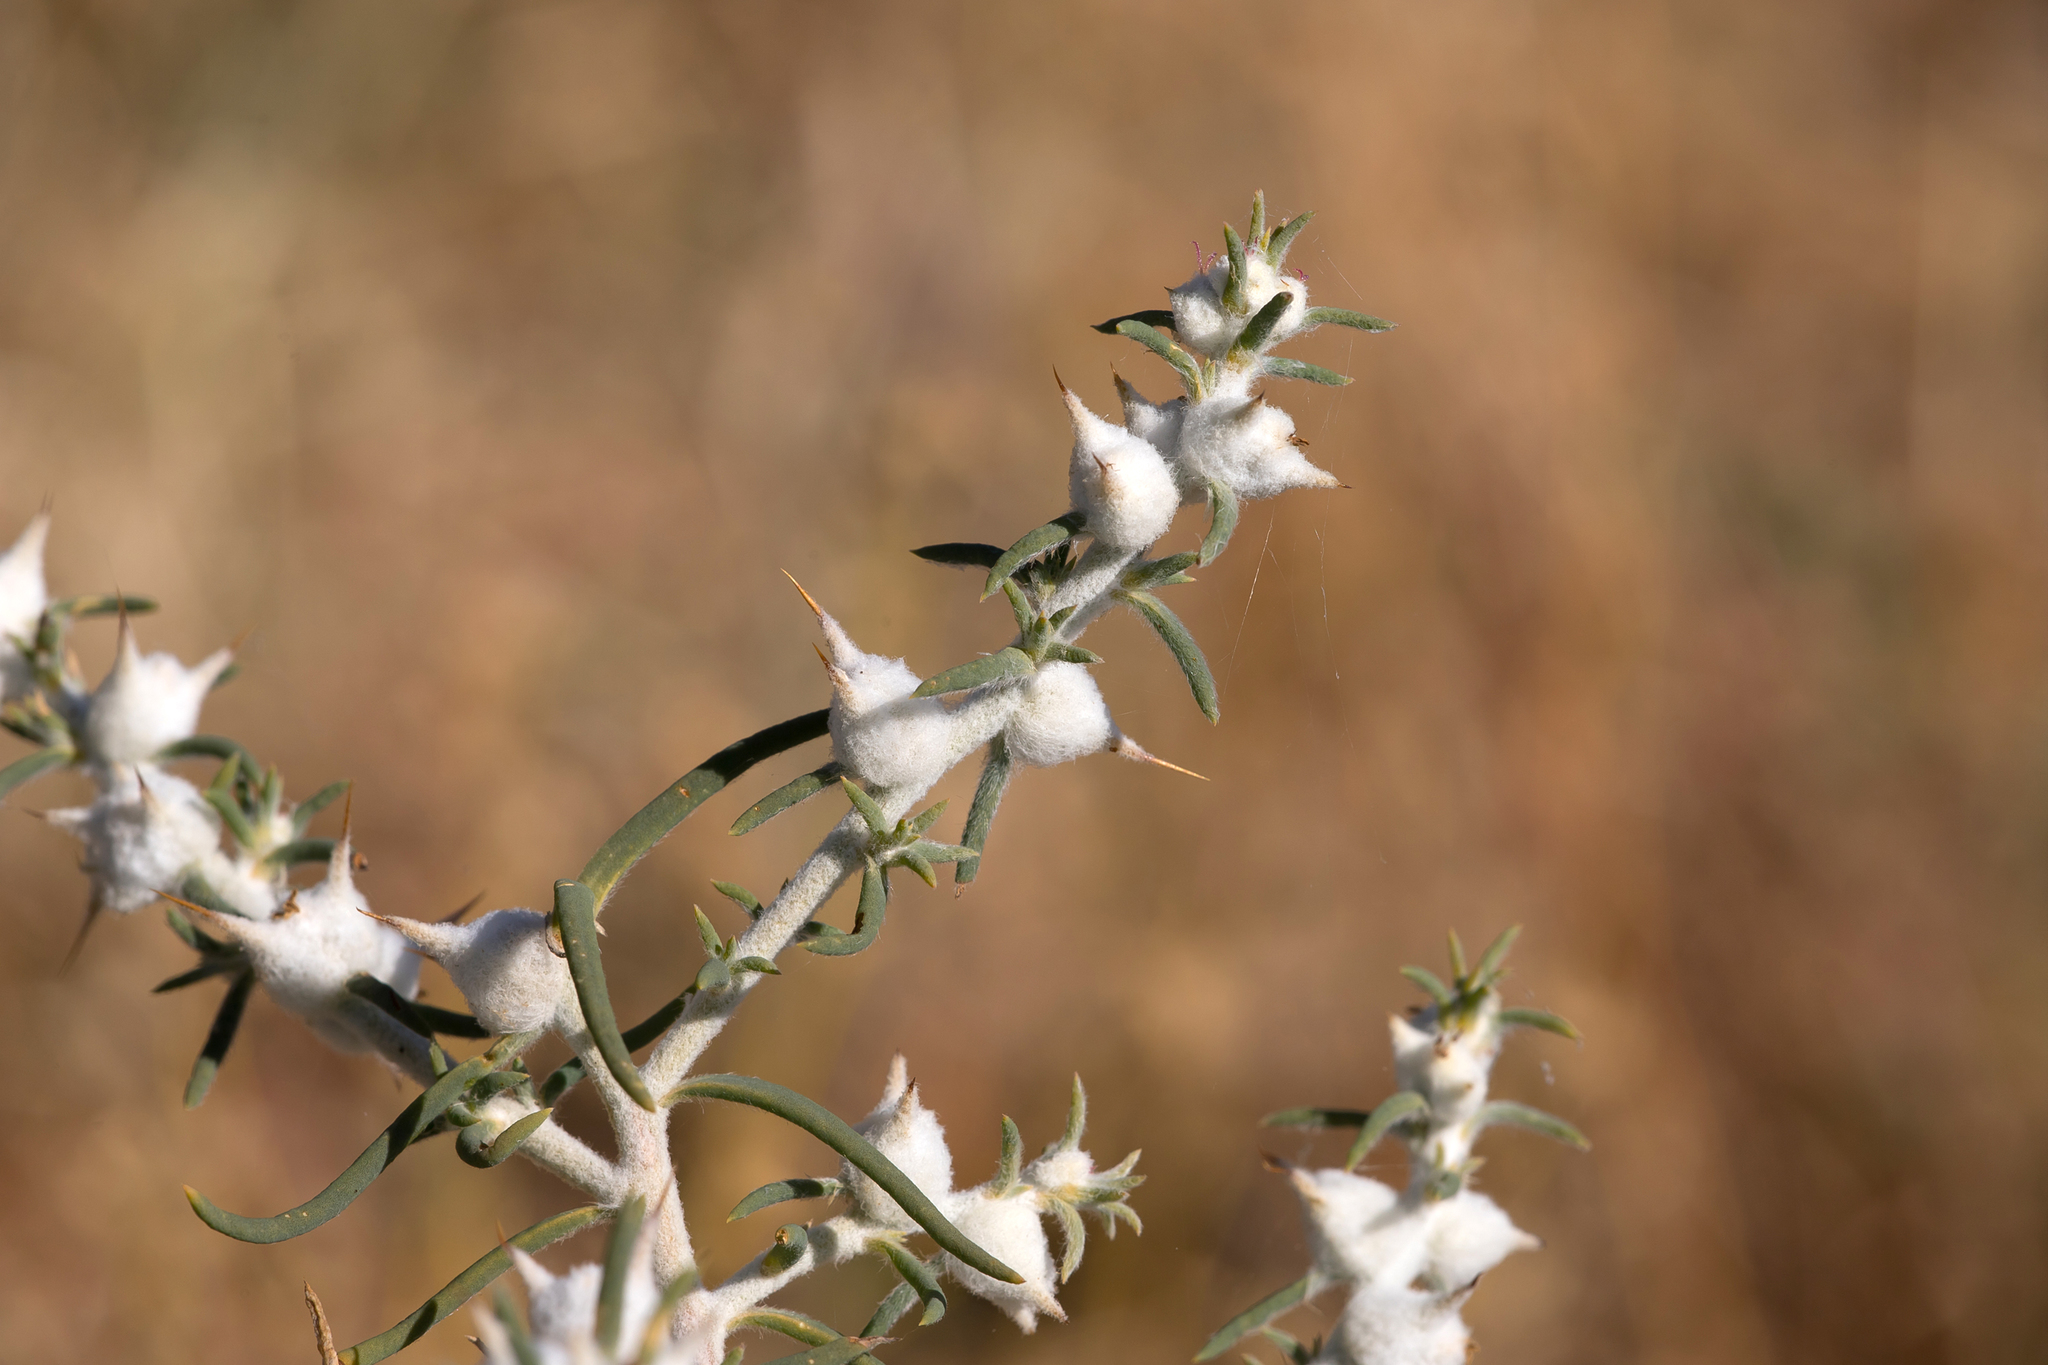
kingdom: Plantae
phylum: Tracheophyta
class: Magnoliopsida
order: Caryophyllales
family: Amaranthaceae
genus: Sclerolaena
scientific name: Sclerolaena bicornis
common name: Goatheadbur
